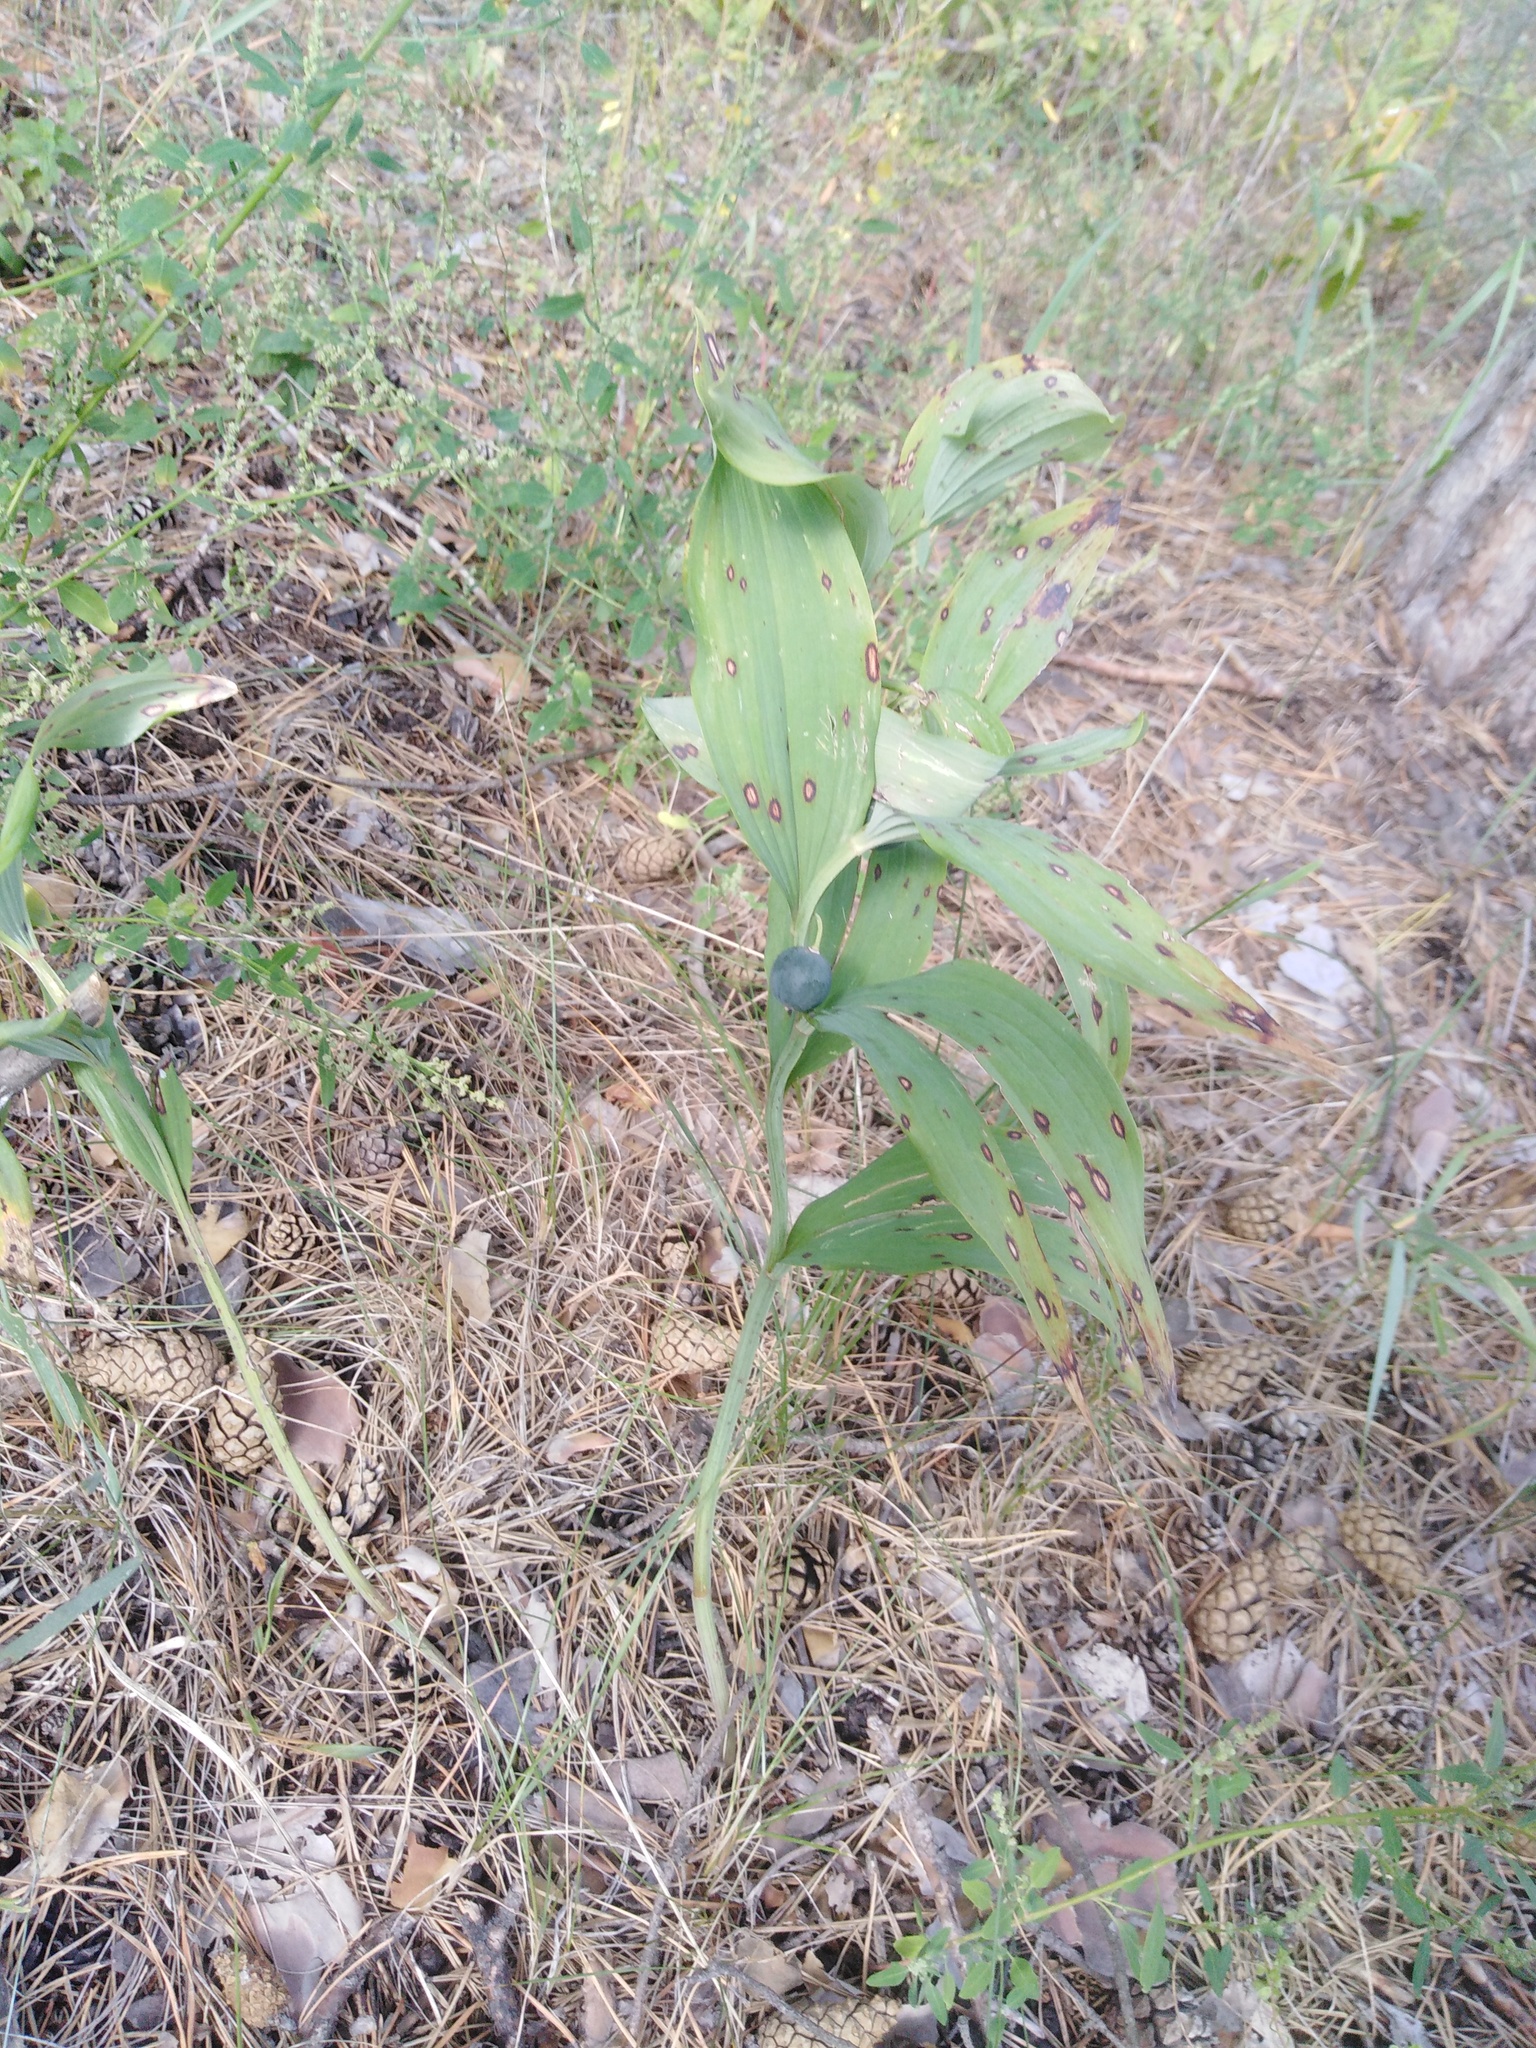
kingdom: Plantae
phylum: Tracheophyta
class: Liliopsida
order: Asparagales
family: Asparagaceae
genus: Polygonatum
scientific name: Polygonatum odoratum
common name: Angular solomon's-seal
